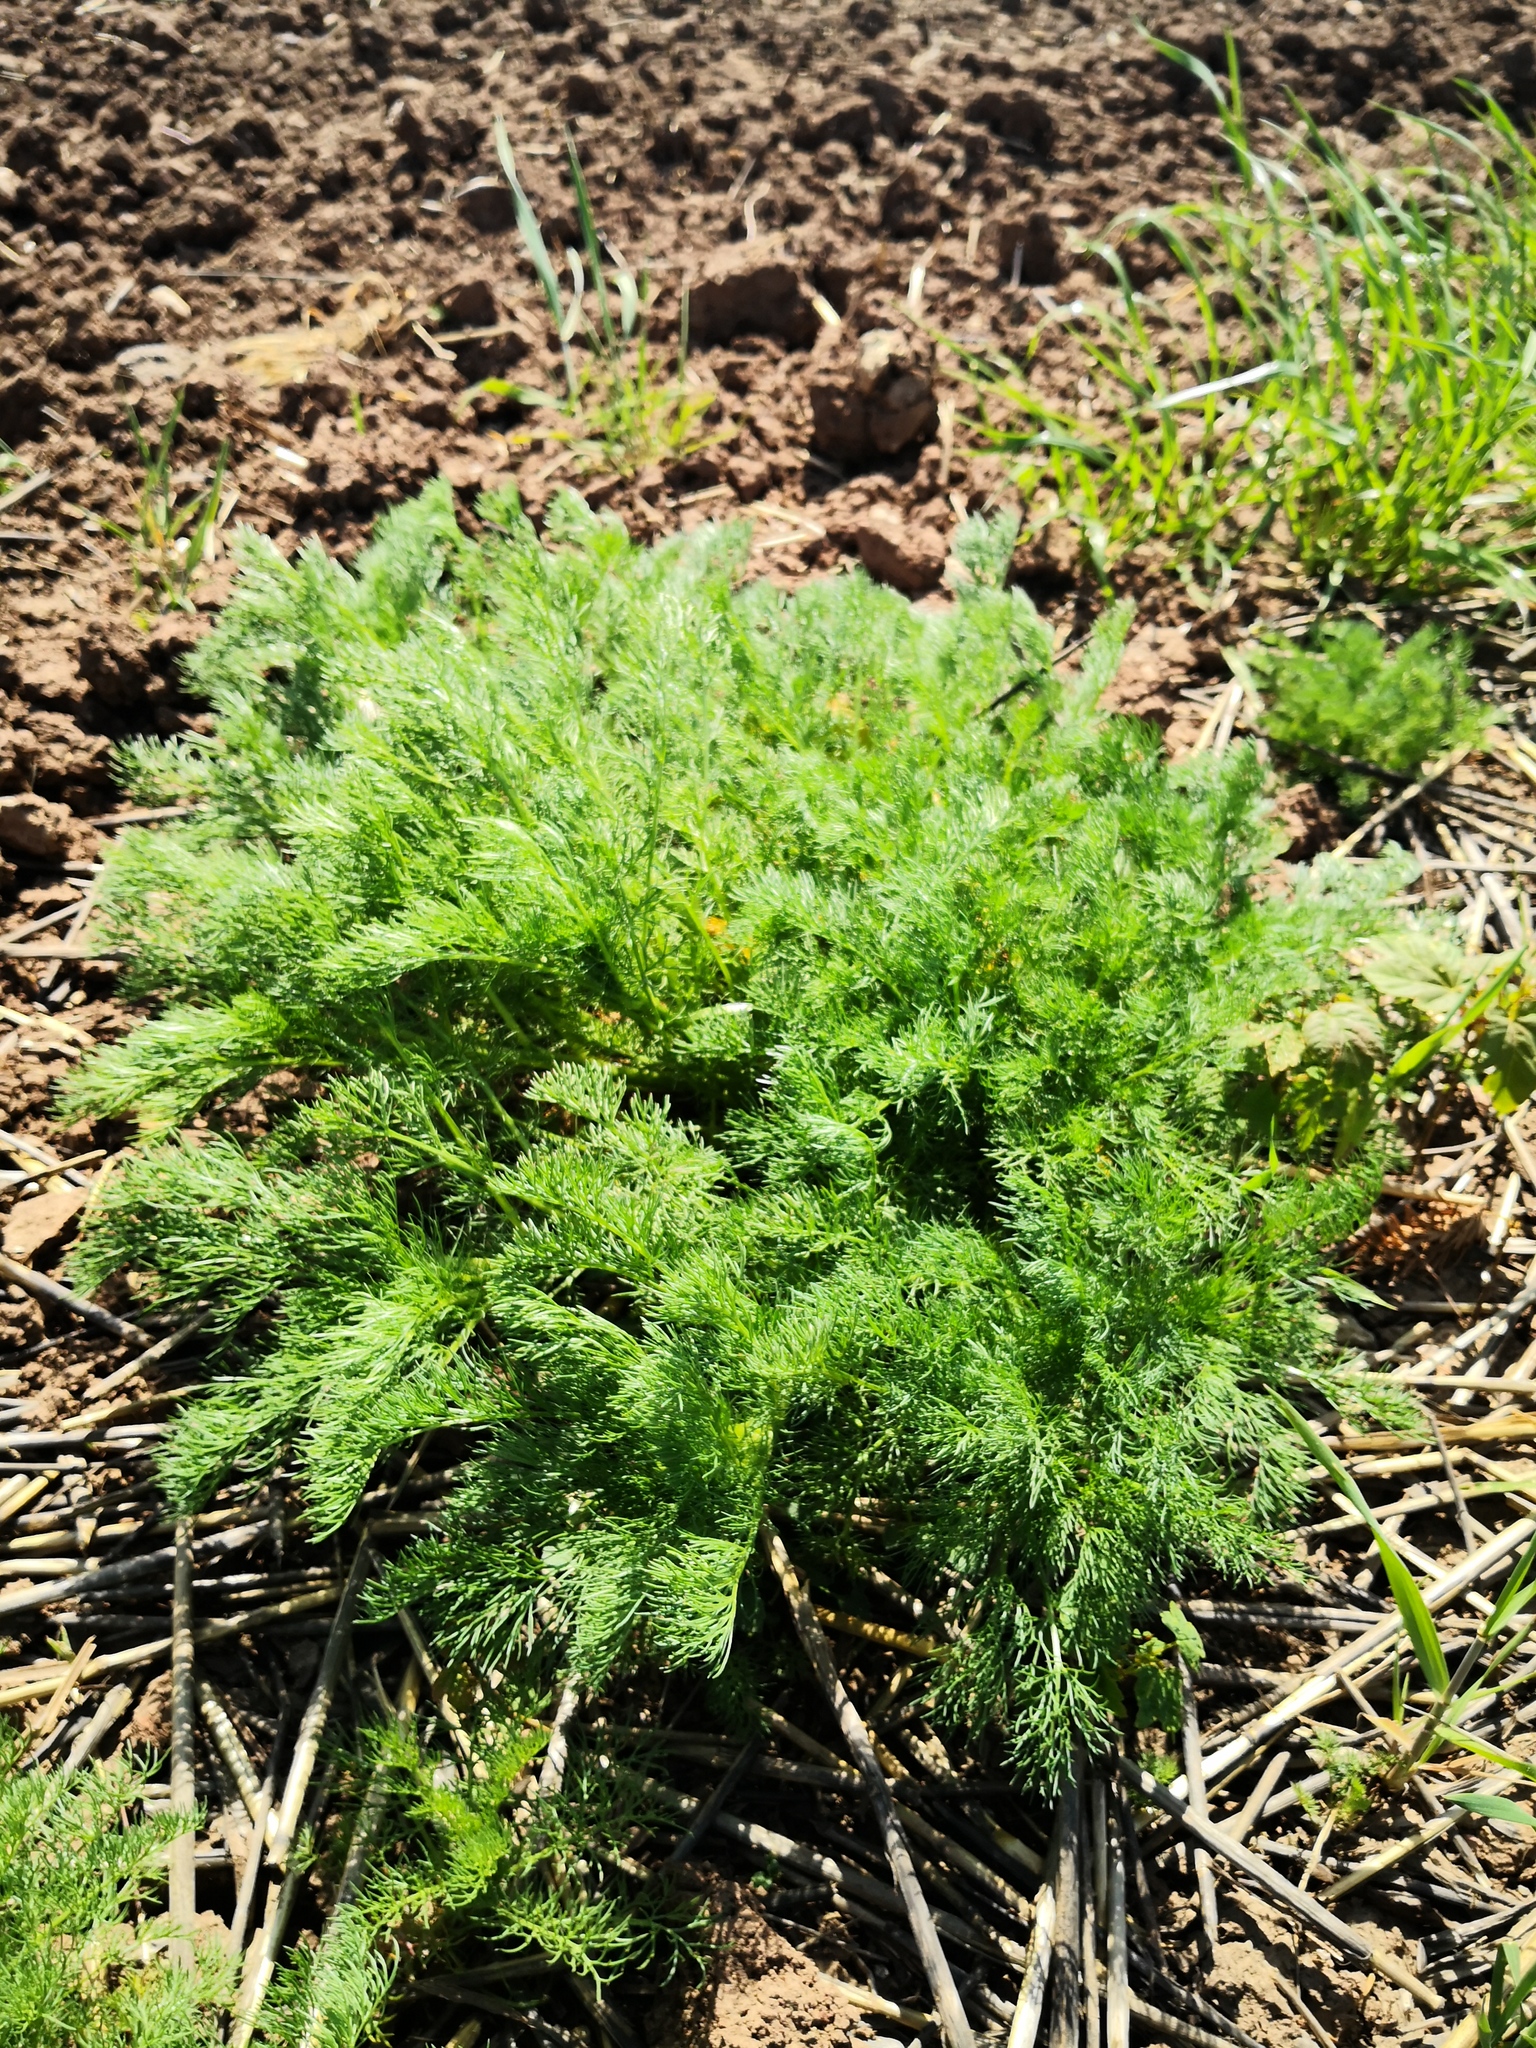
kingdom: Plantae
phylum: Tracheophyta
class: Magnoliopsida
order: Asterales
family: Asteraceae
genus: Tripleurospermum
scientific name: Tripleurospermum inodorum
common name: Scentless mayweed
